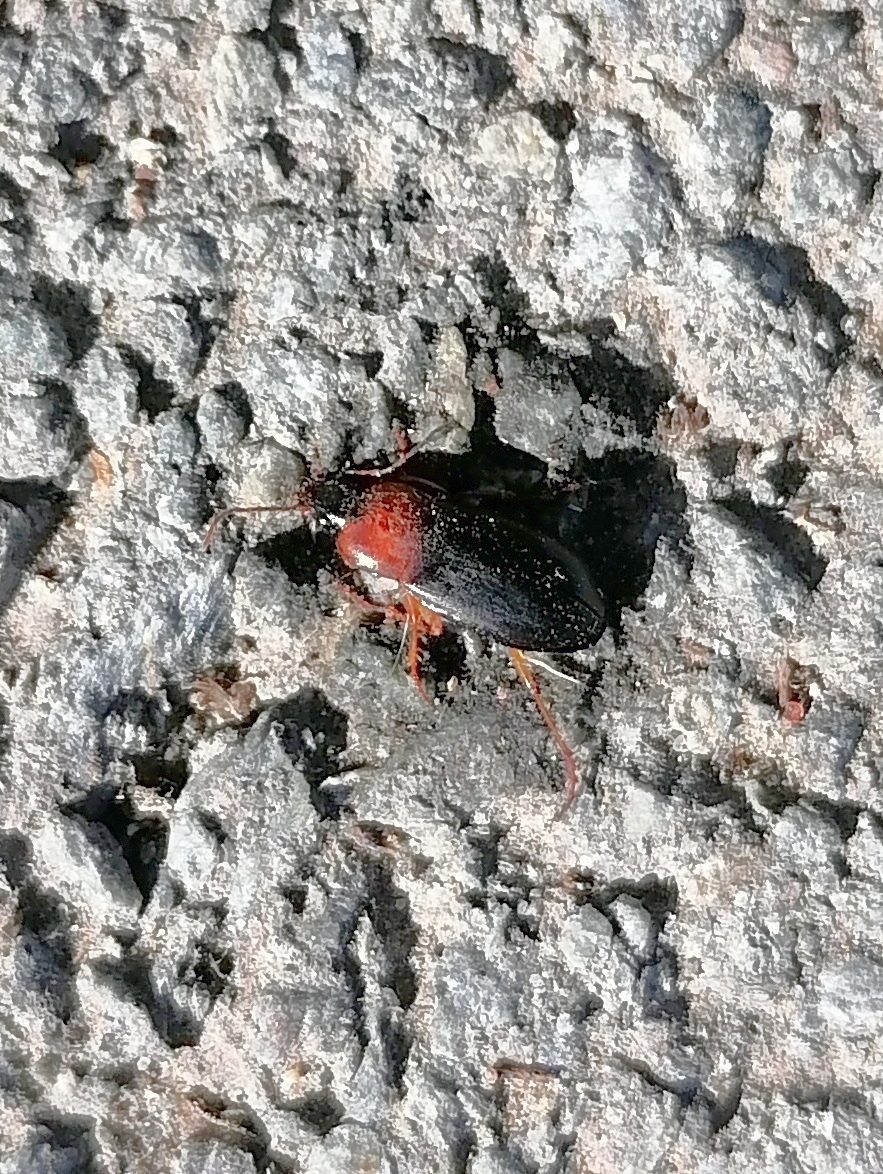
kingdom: Animalia
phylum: Arthropoda
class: Insecta
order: Coleoptera
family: Carabidae
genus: Calathus
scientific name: Calathus melanocephalus
